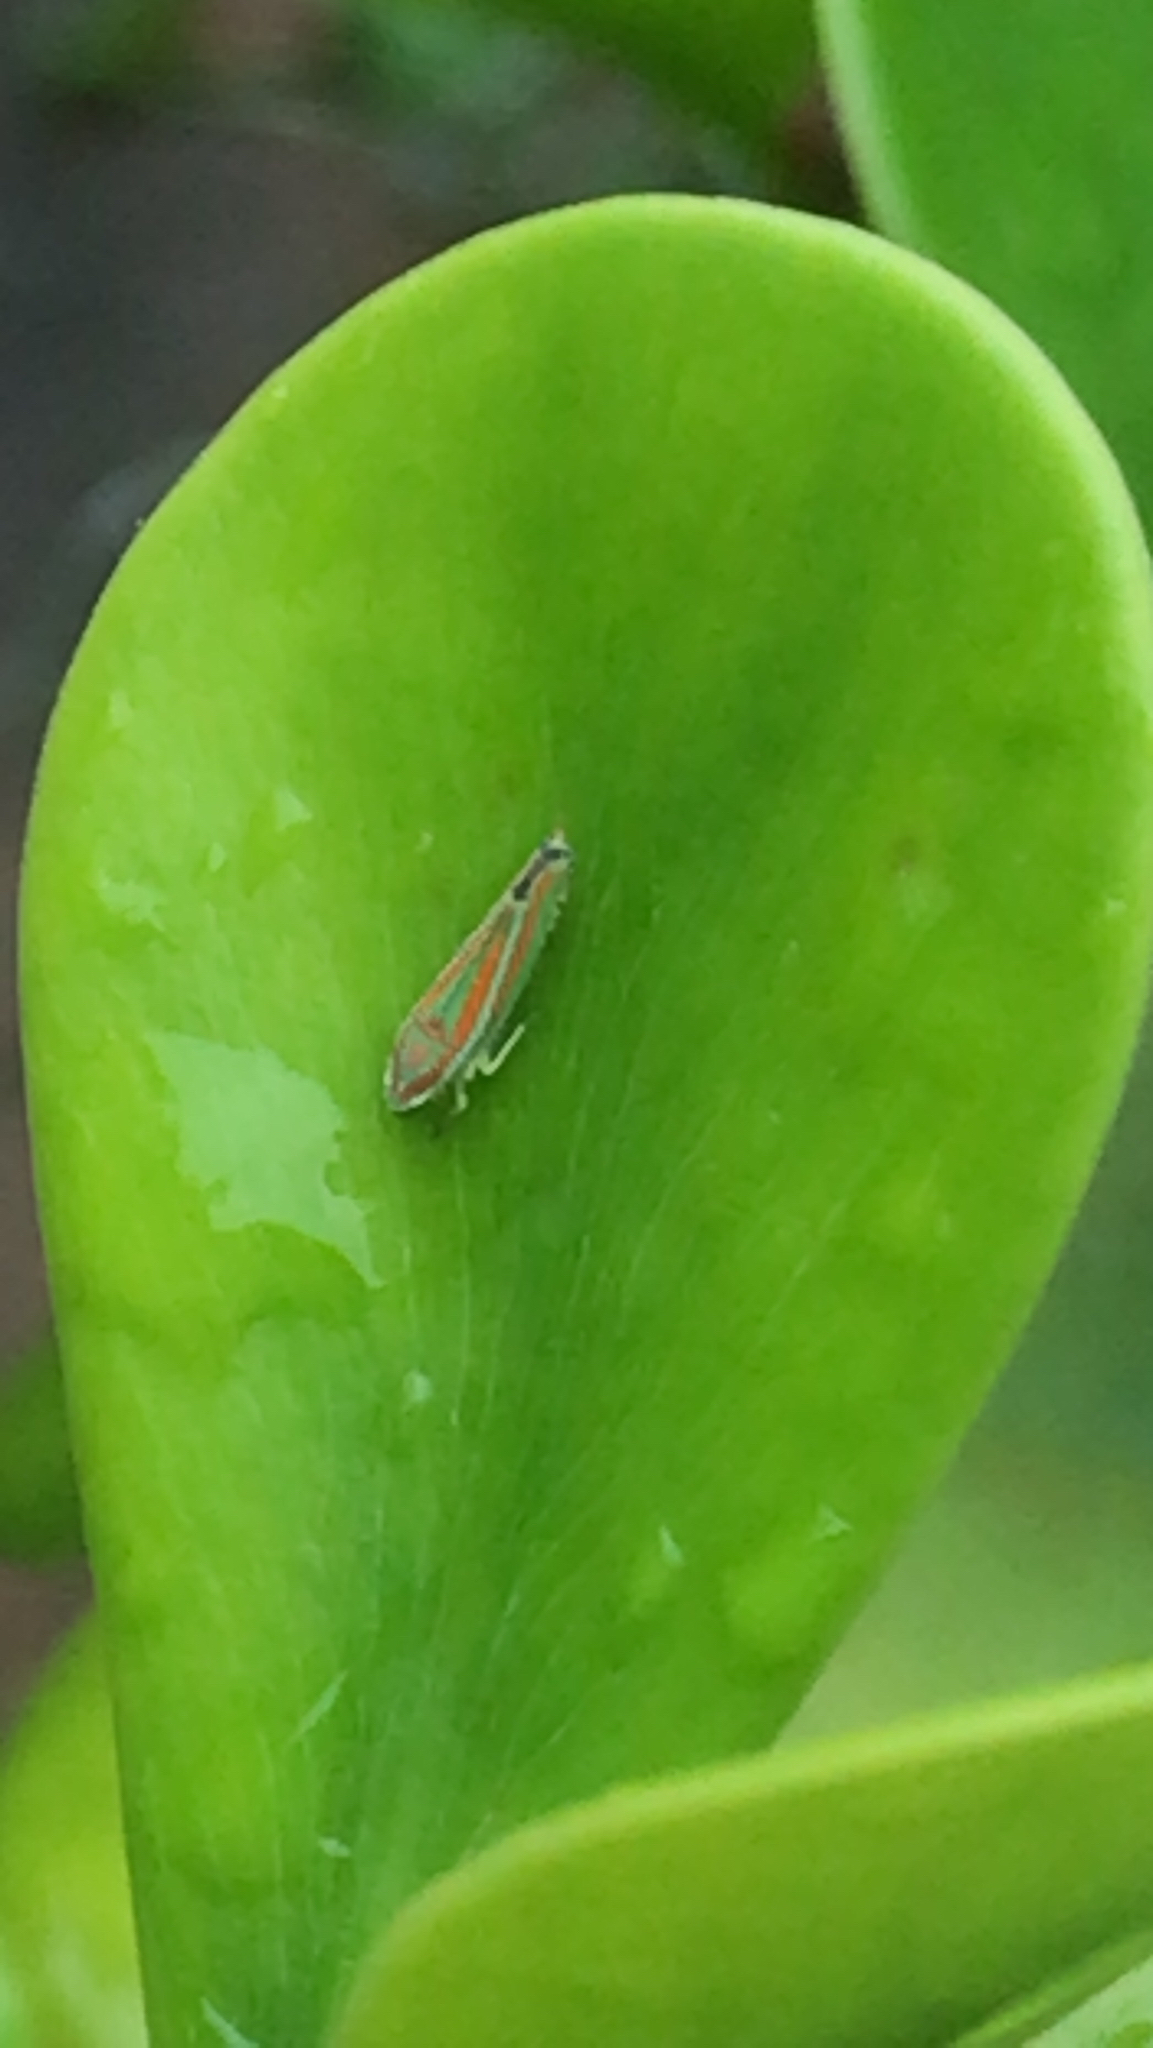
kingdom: Animalia
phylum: Arthropoda
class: Insecta
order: Hemiptera
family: Cicadellidae
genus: Graphocephala
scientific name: Graphocephala versuta
